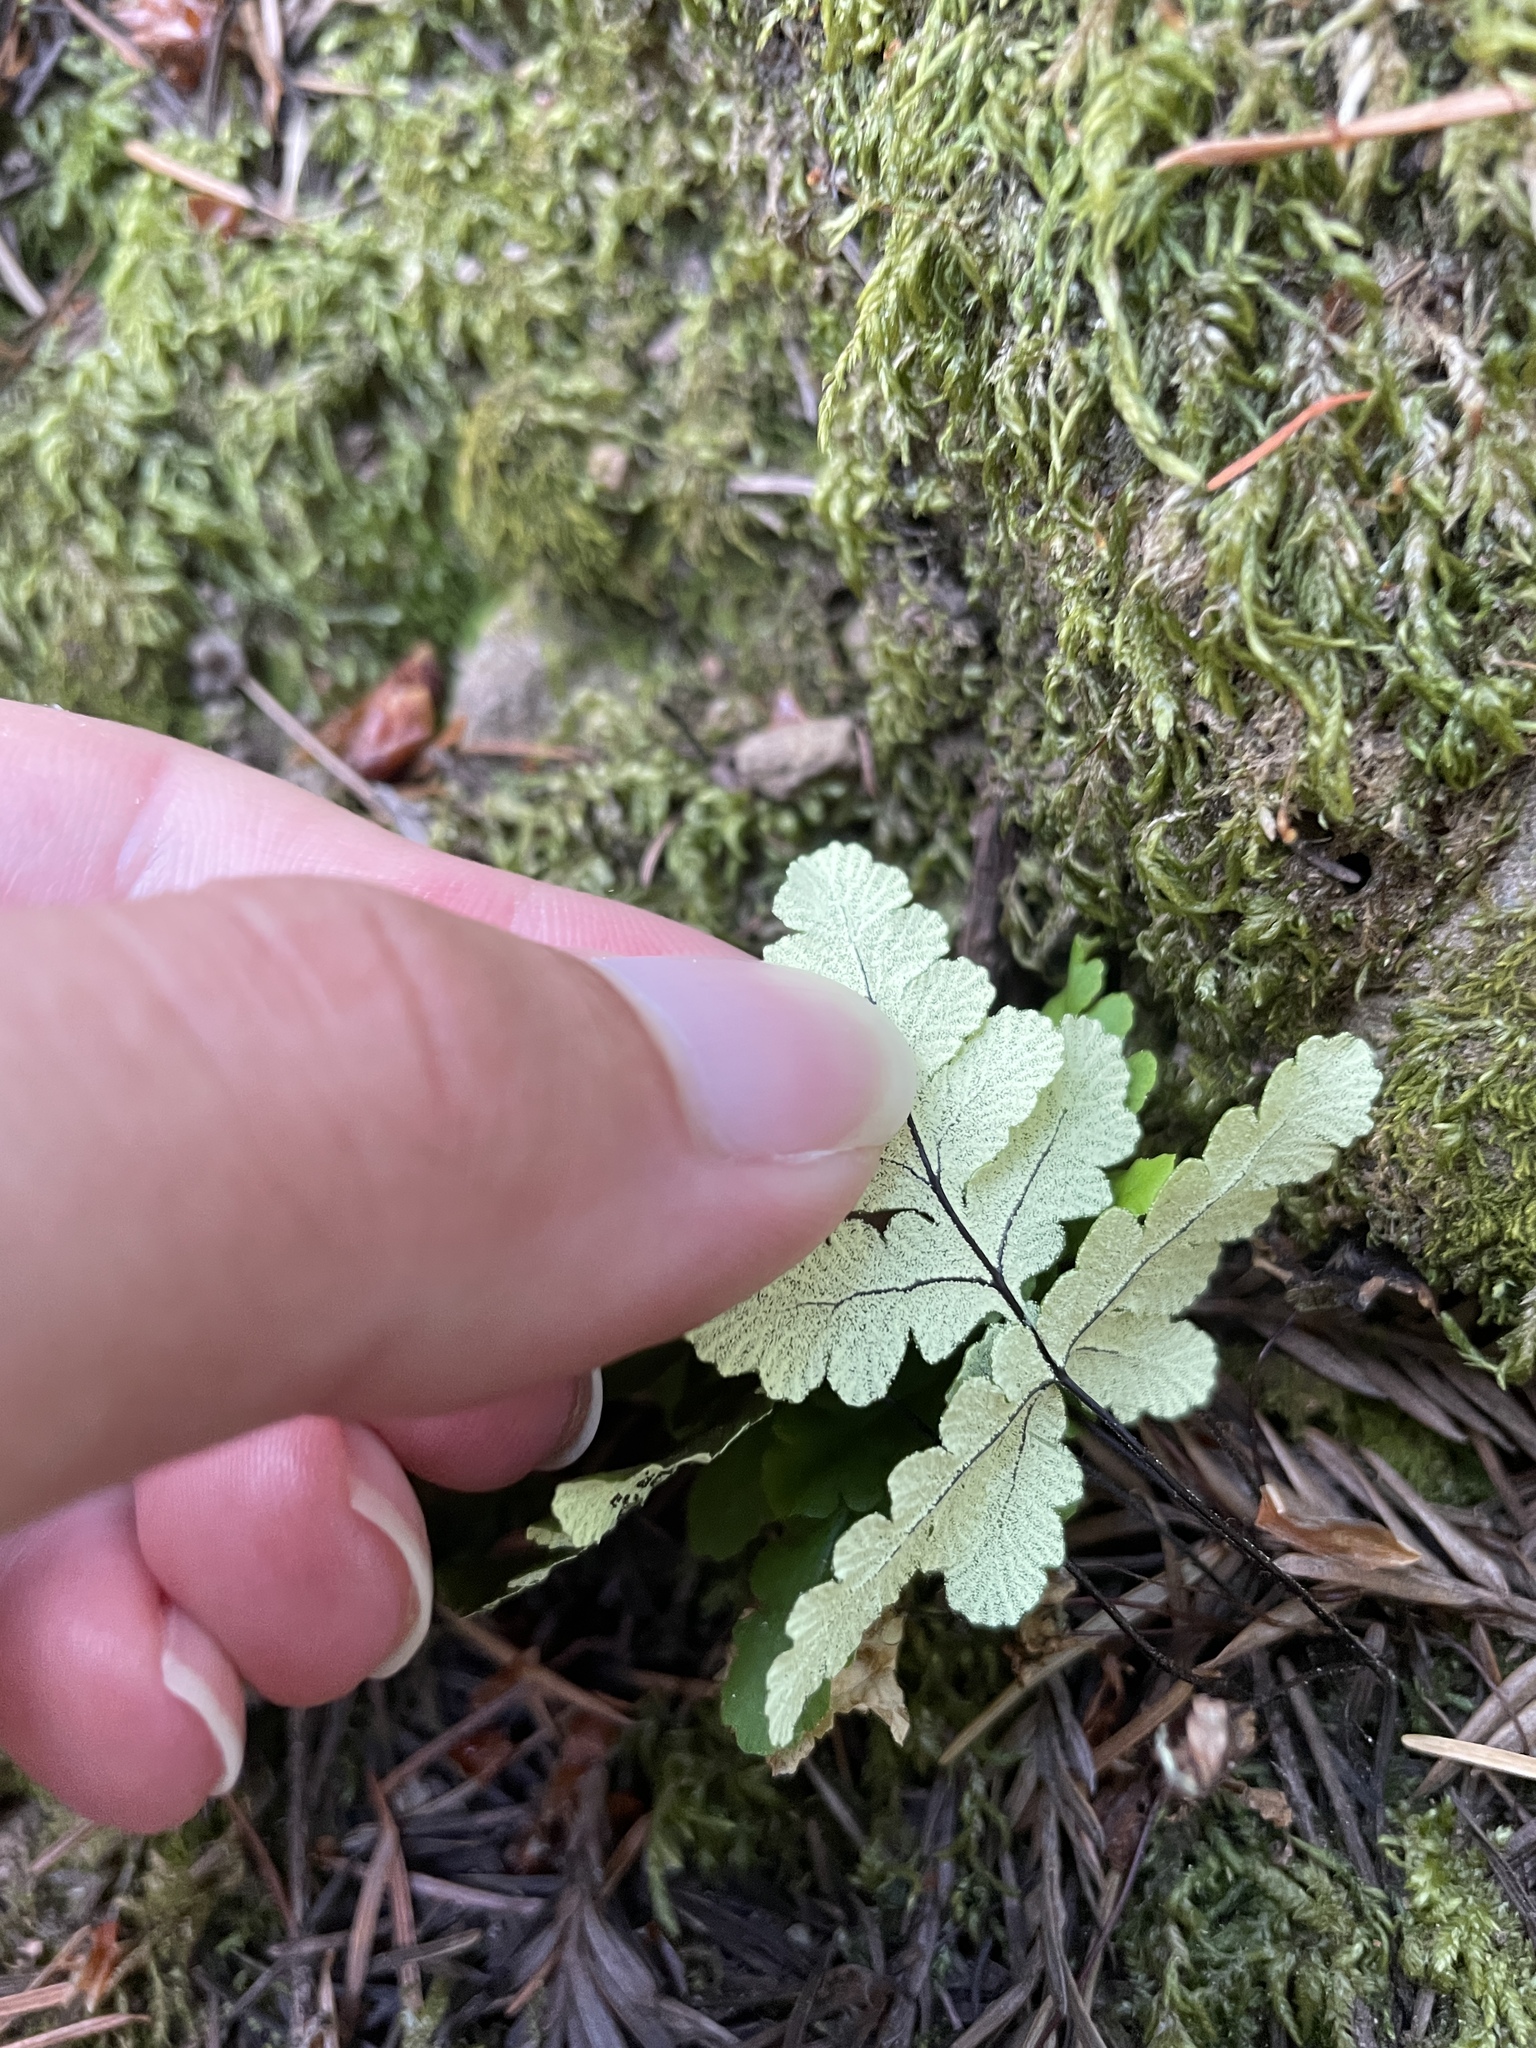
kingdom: Plantae
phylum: Tracheophyta
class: Polypodiopsida
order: Polypodiales
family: Pteridaceae
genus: Pentagramma
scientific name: Pentagramma triangularis
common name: Gold fern
